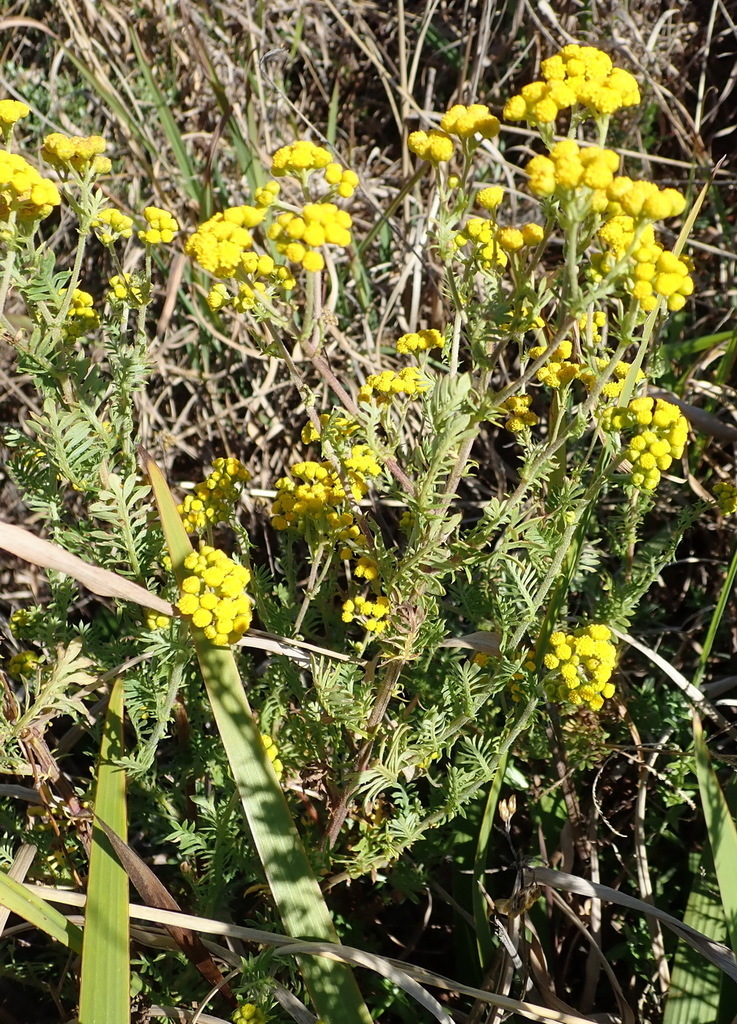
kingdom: Plantae
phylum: Tracheophyta
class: Magnoliopsida
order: Asterales
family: Asteraceae
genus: Hippia
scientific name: Hippia frutescens
